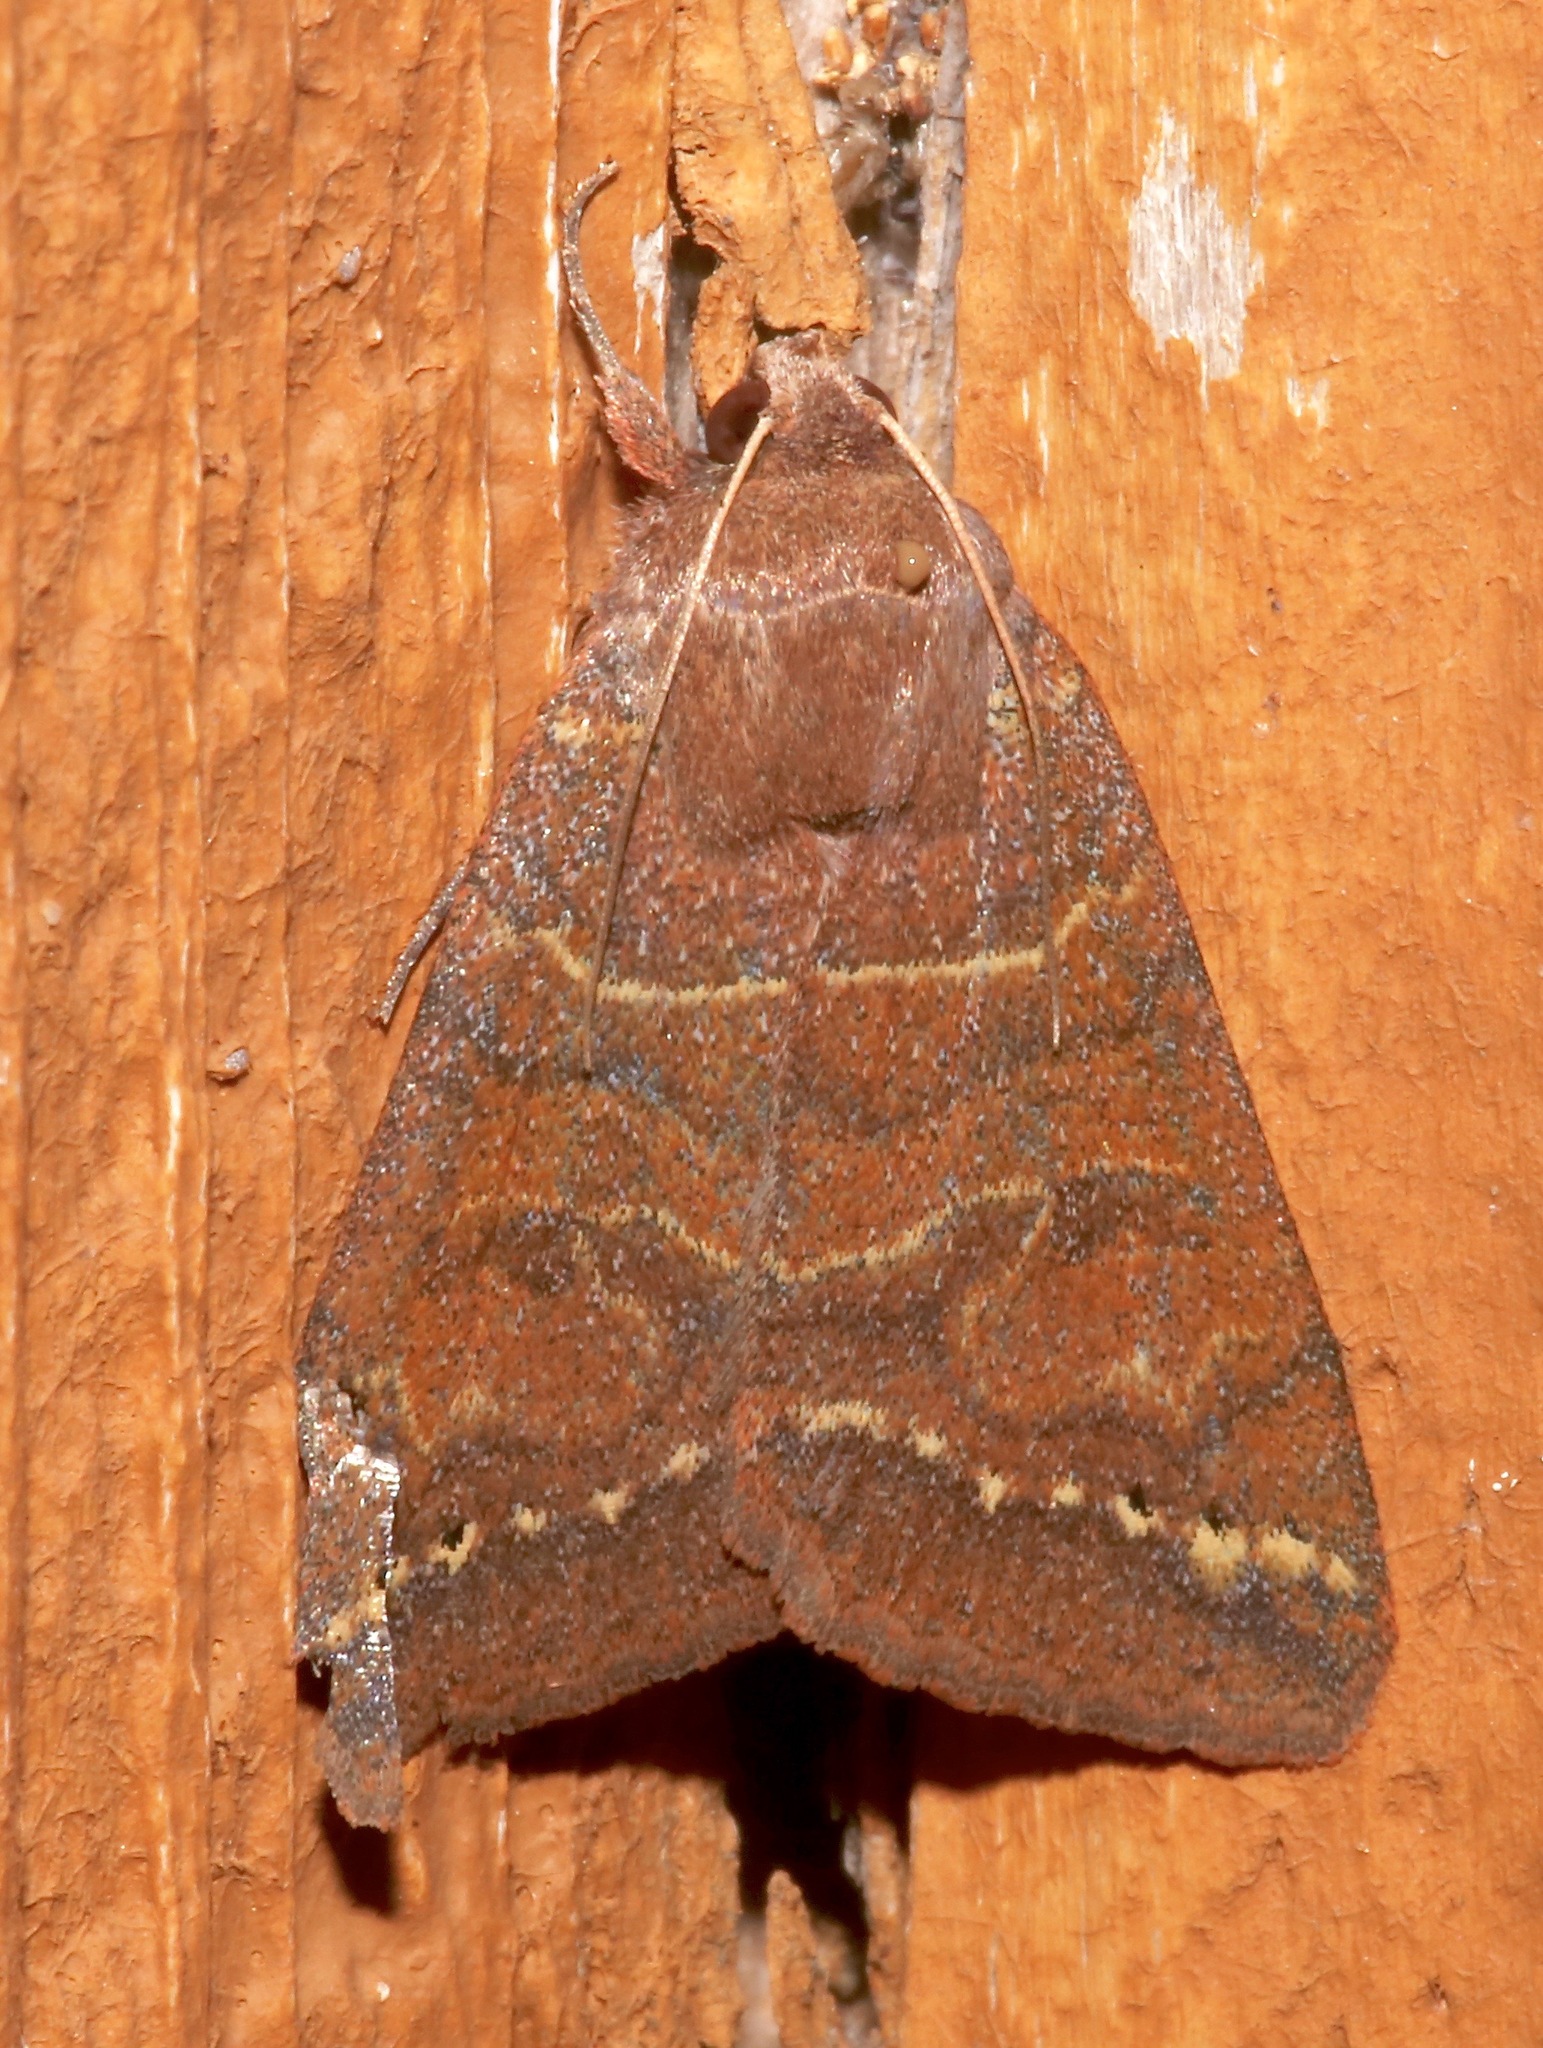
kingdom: Animalia
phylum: Arthropoda
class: Insecta
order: Lepidoptera
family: Erebidae
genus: Cissusa
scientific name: Cissusa spadix
